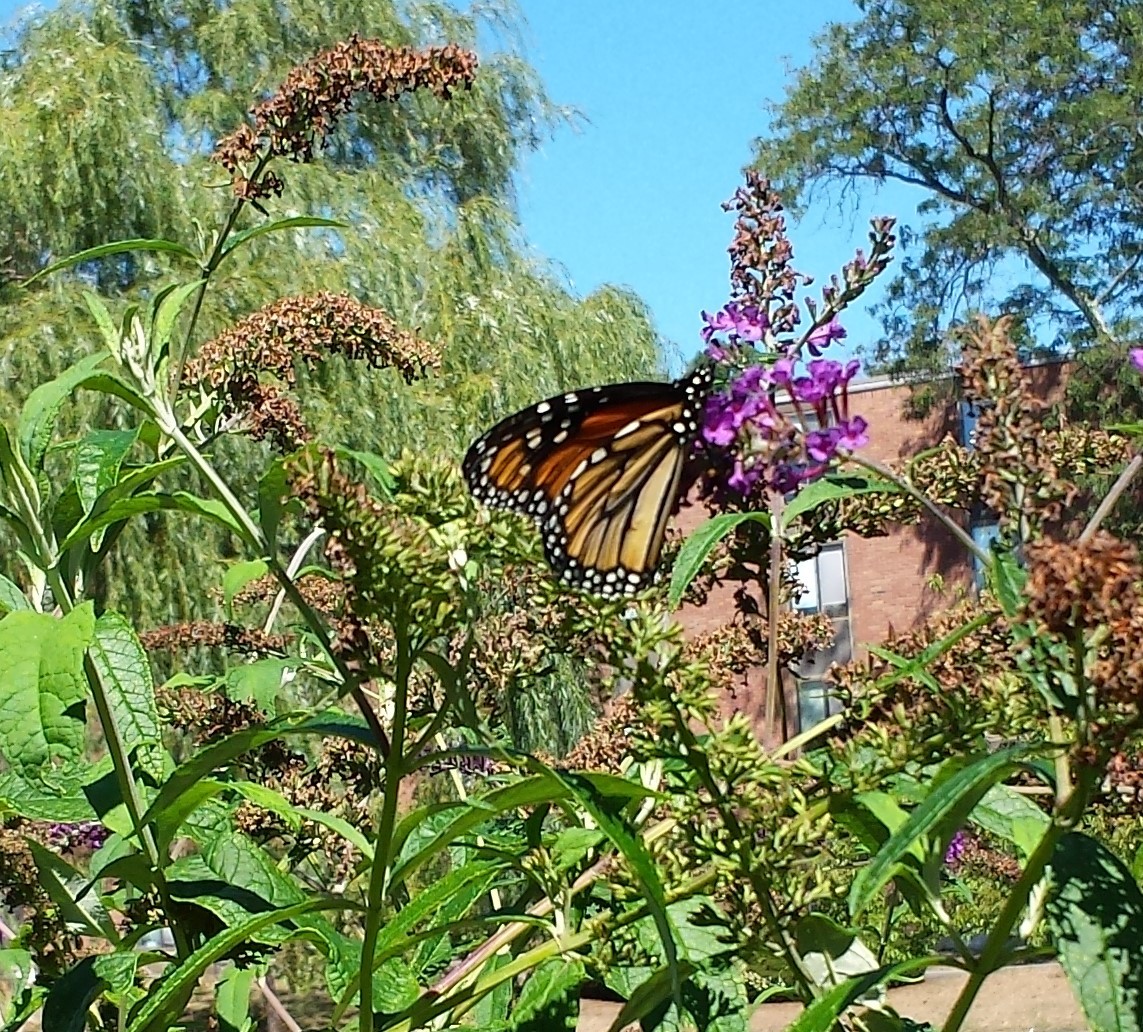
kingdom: Animalia
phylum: Arthropoda
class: Insecta
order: Lepidoptera
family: Nymphalidae
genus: Danaus
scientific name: Danaus plexippus
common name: Monarch
